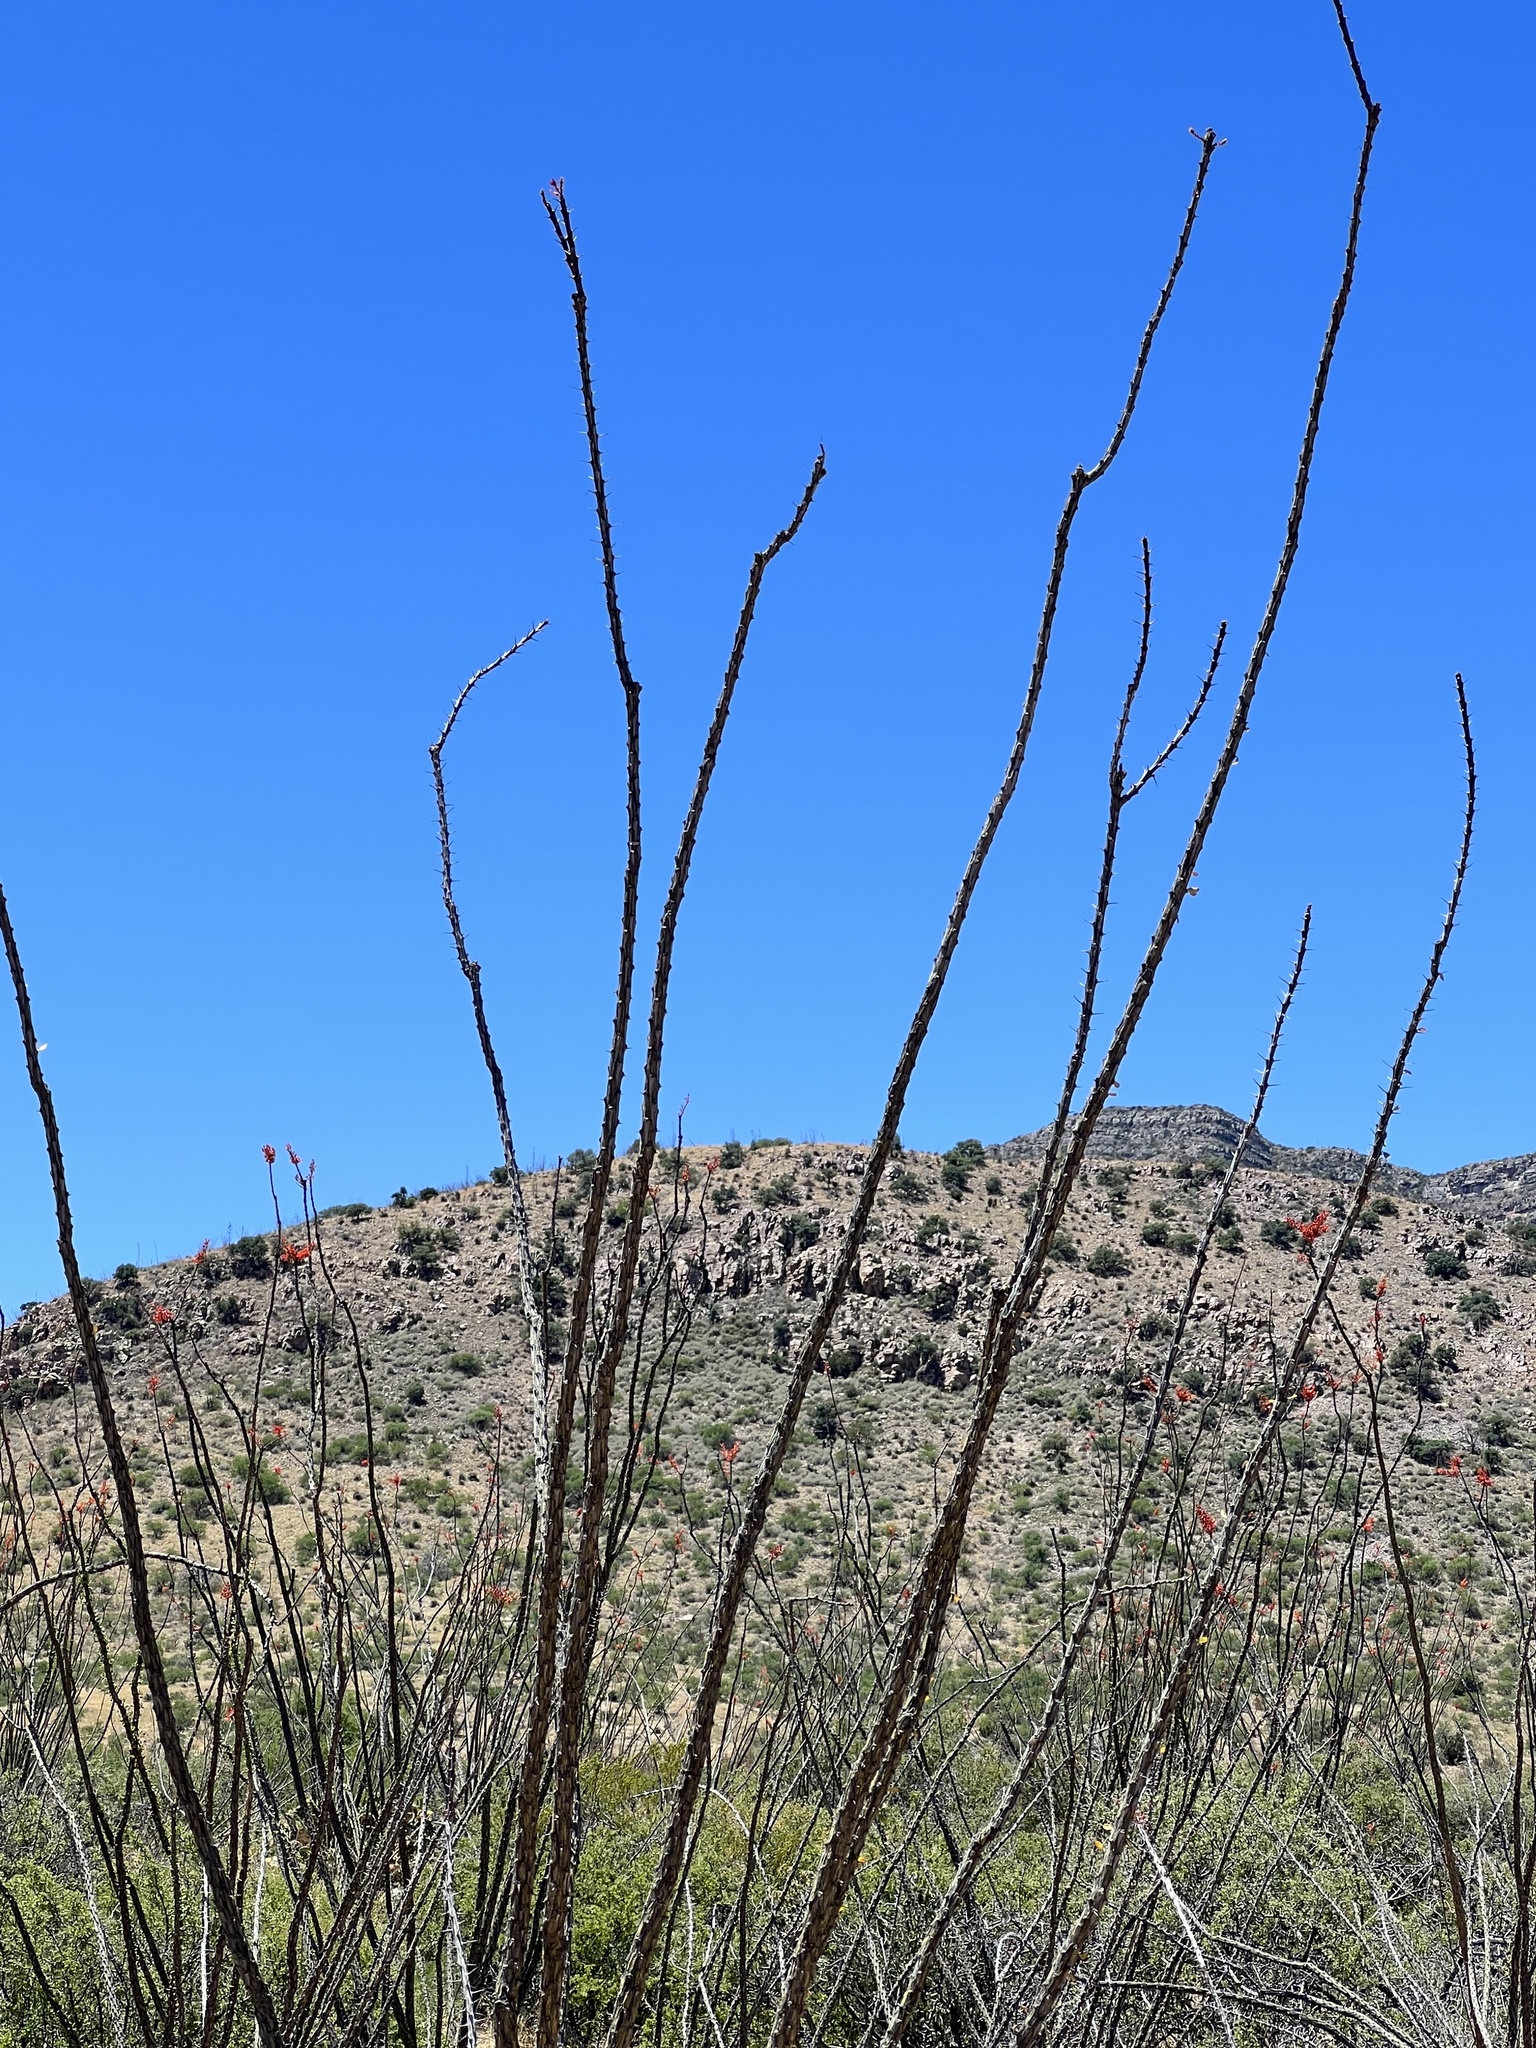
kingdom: Plantae
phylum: Tracheophyta
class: Magnoliopsida
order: Ericales
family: Fouquieriaceae
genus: Fouquieria
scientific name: Fouquieria splendens
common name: Vine-cactus
